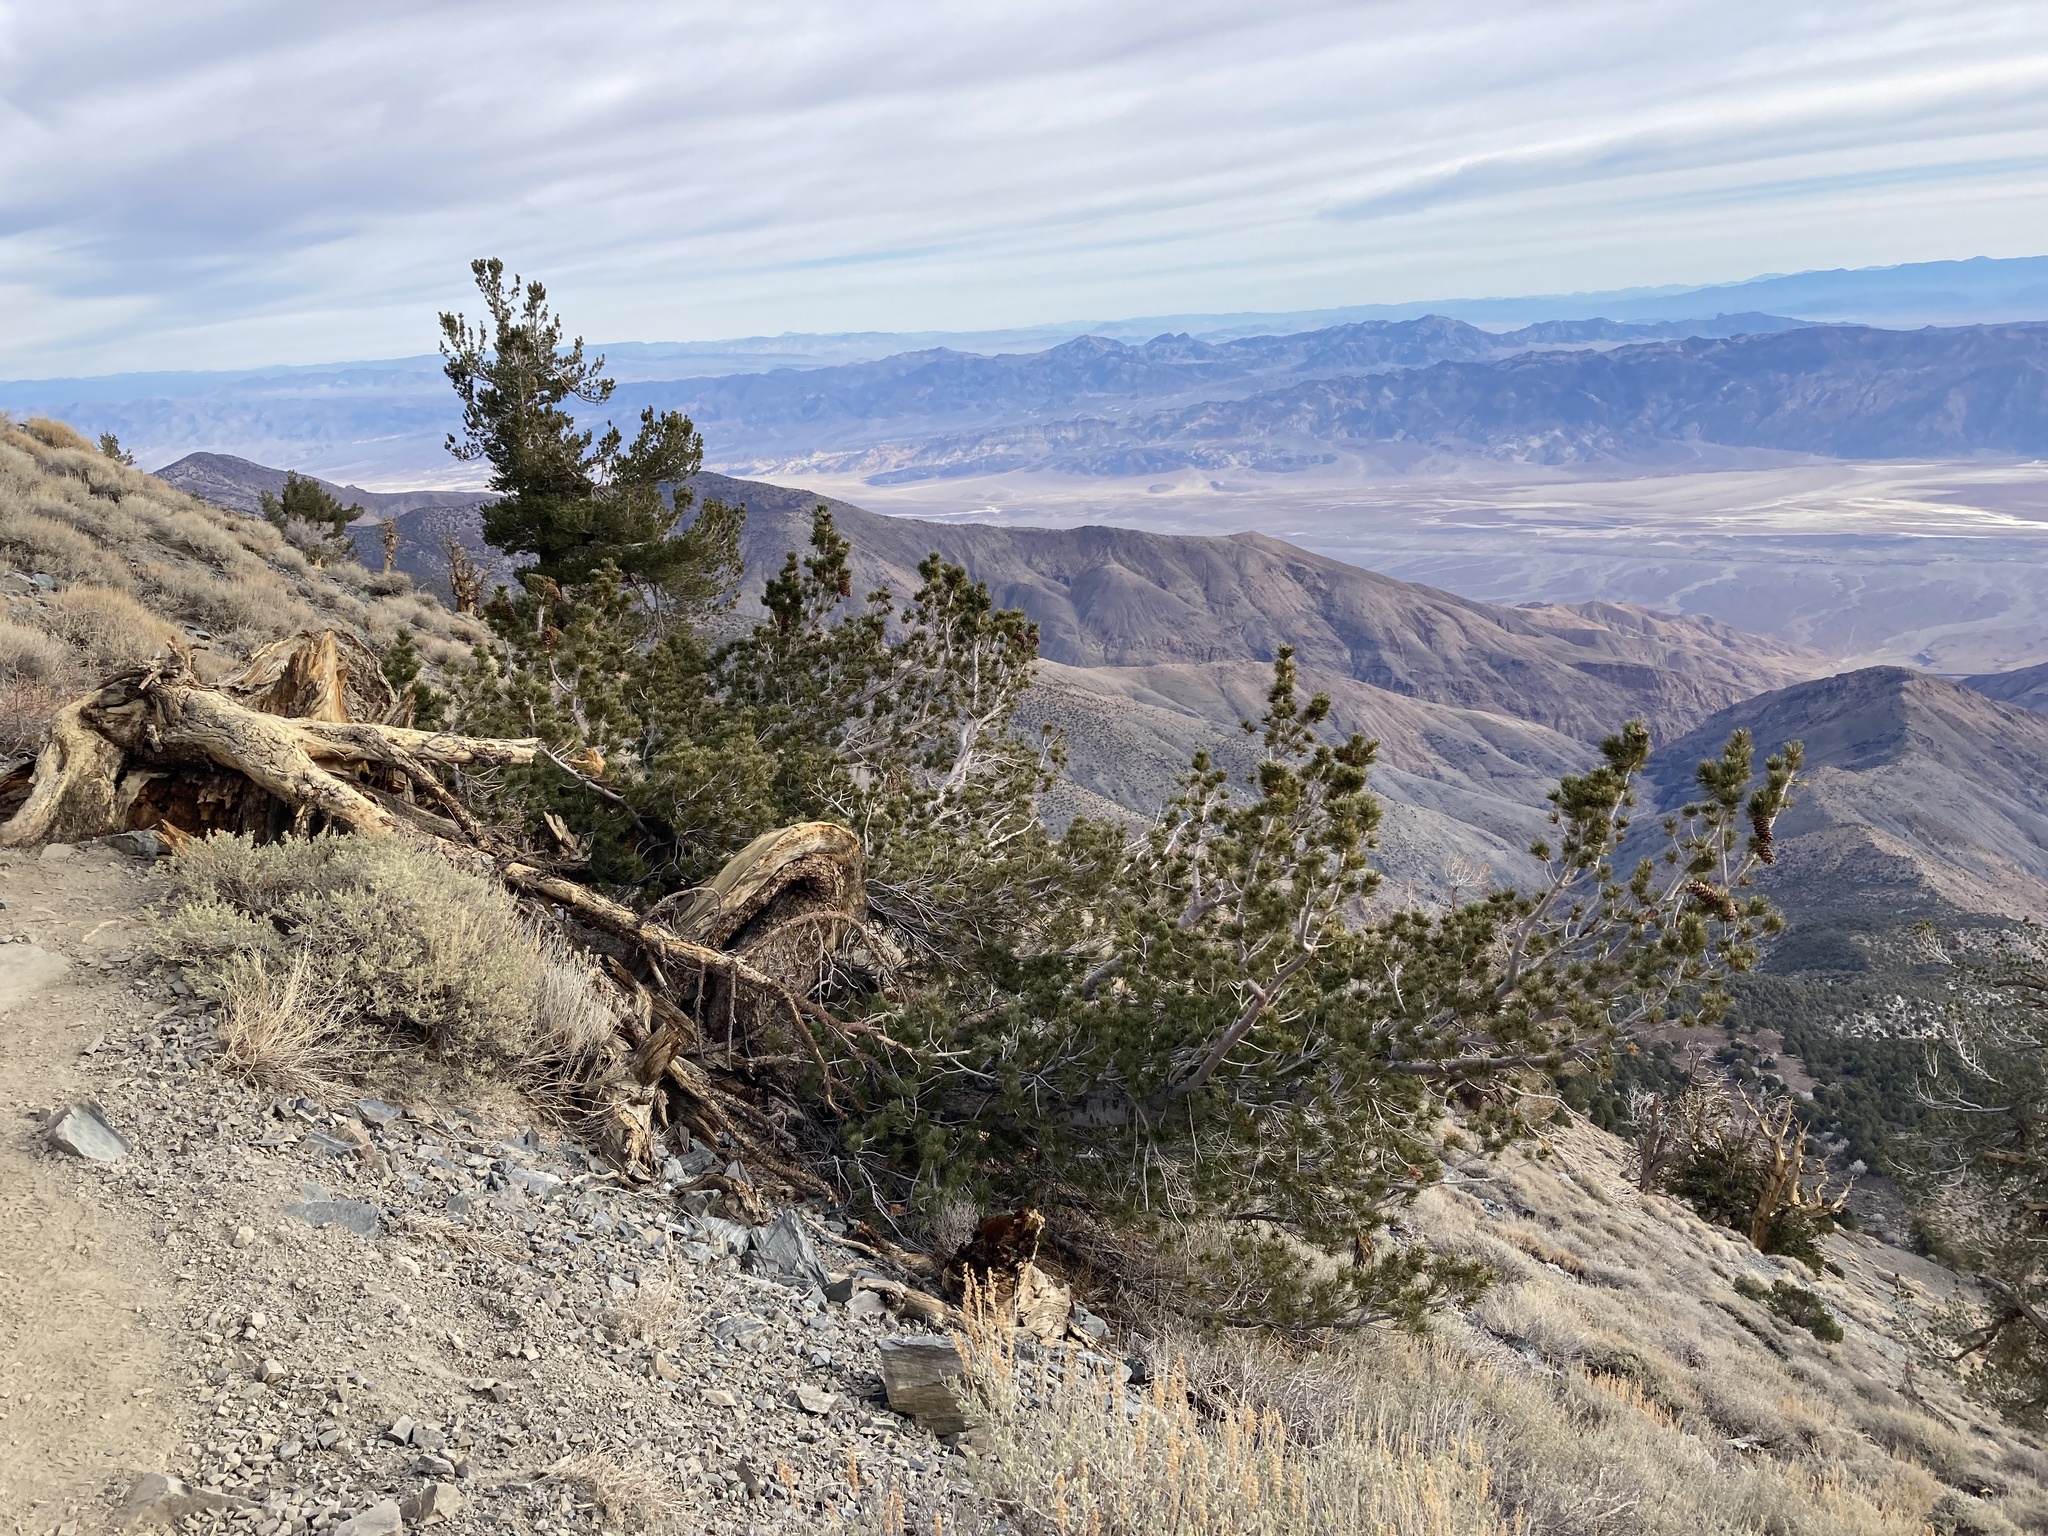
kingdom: Plantae
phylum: Tracheophyta
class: Pinopsida
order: Pinales
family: Pinaceae
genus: Pinus
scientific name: Pinus flexilis
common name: Limber pine
